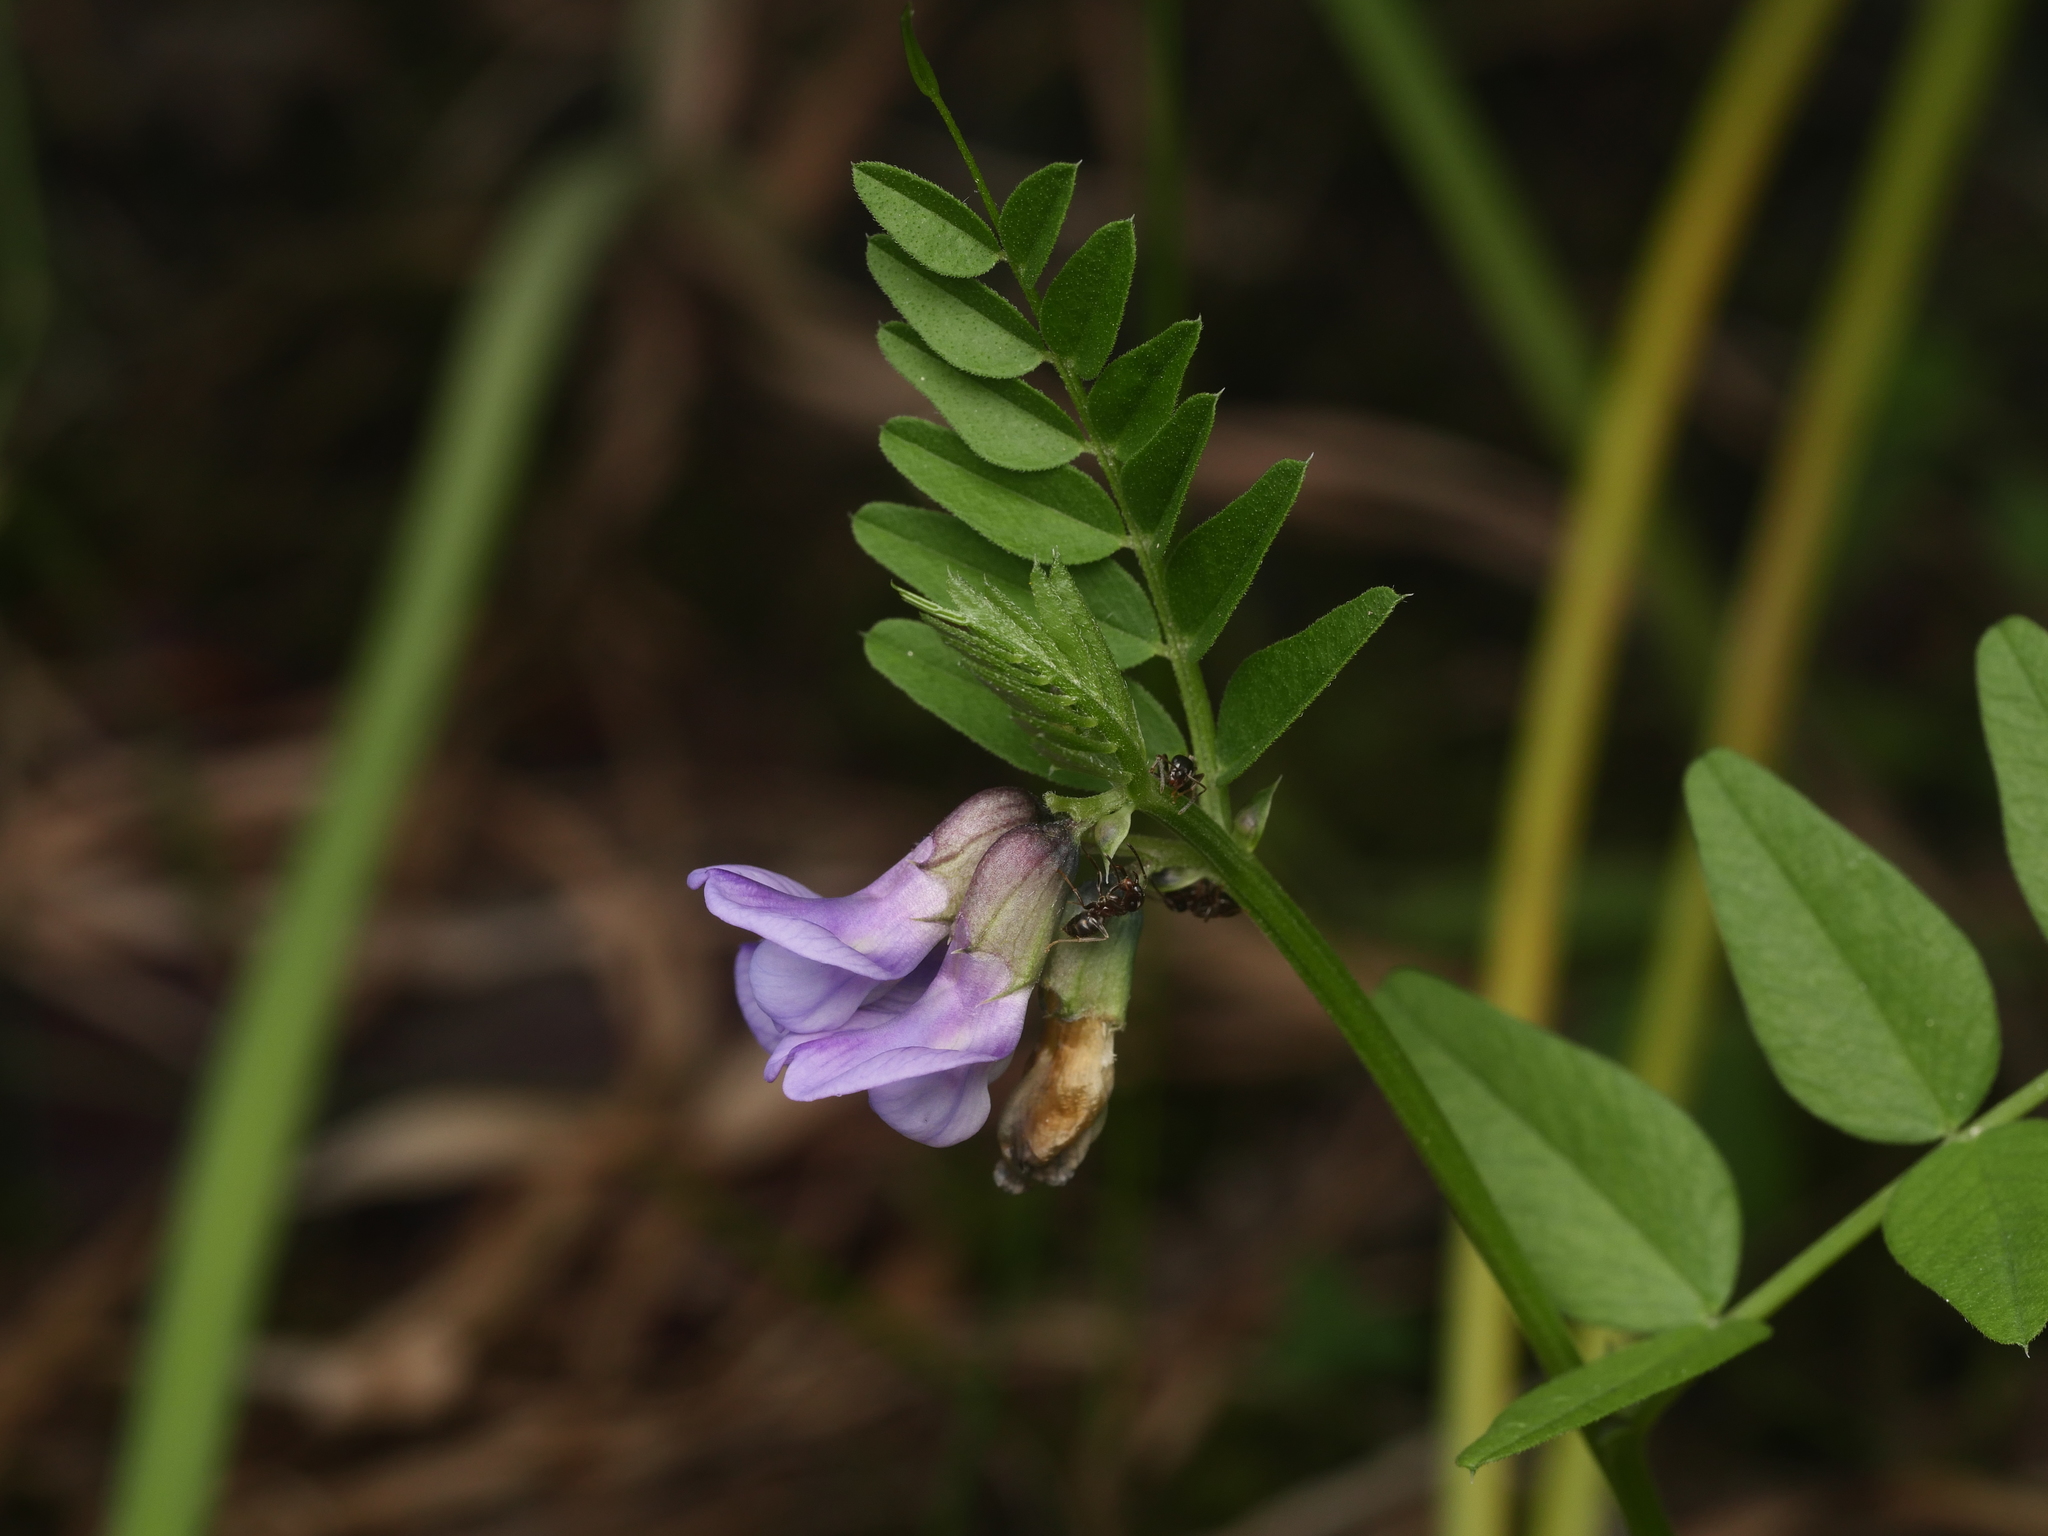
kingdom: Plantae
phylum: Tracheophyta
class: Magnoliopsida
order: Fabales
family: Fabaceae
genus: Vicia
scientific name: Vicia sepium
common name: Bush vetch
